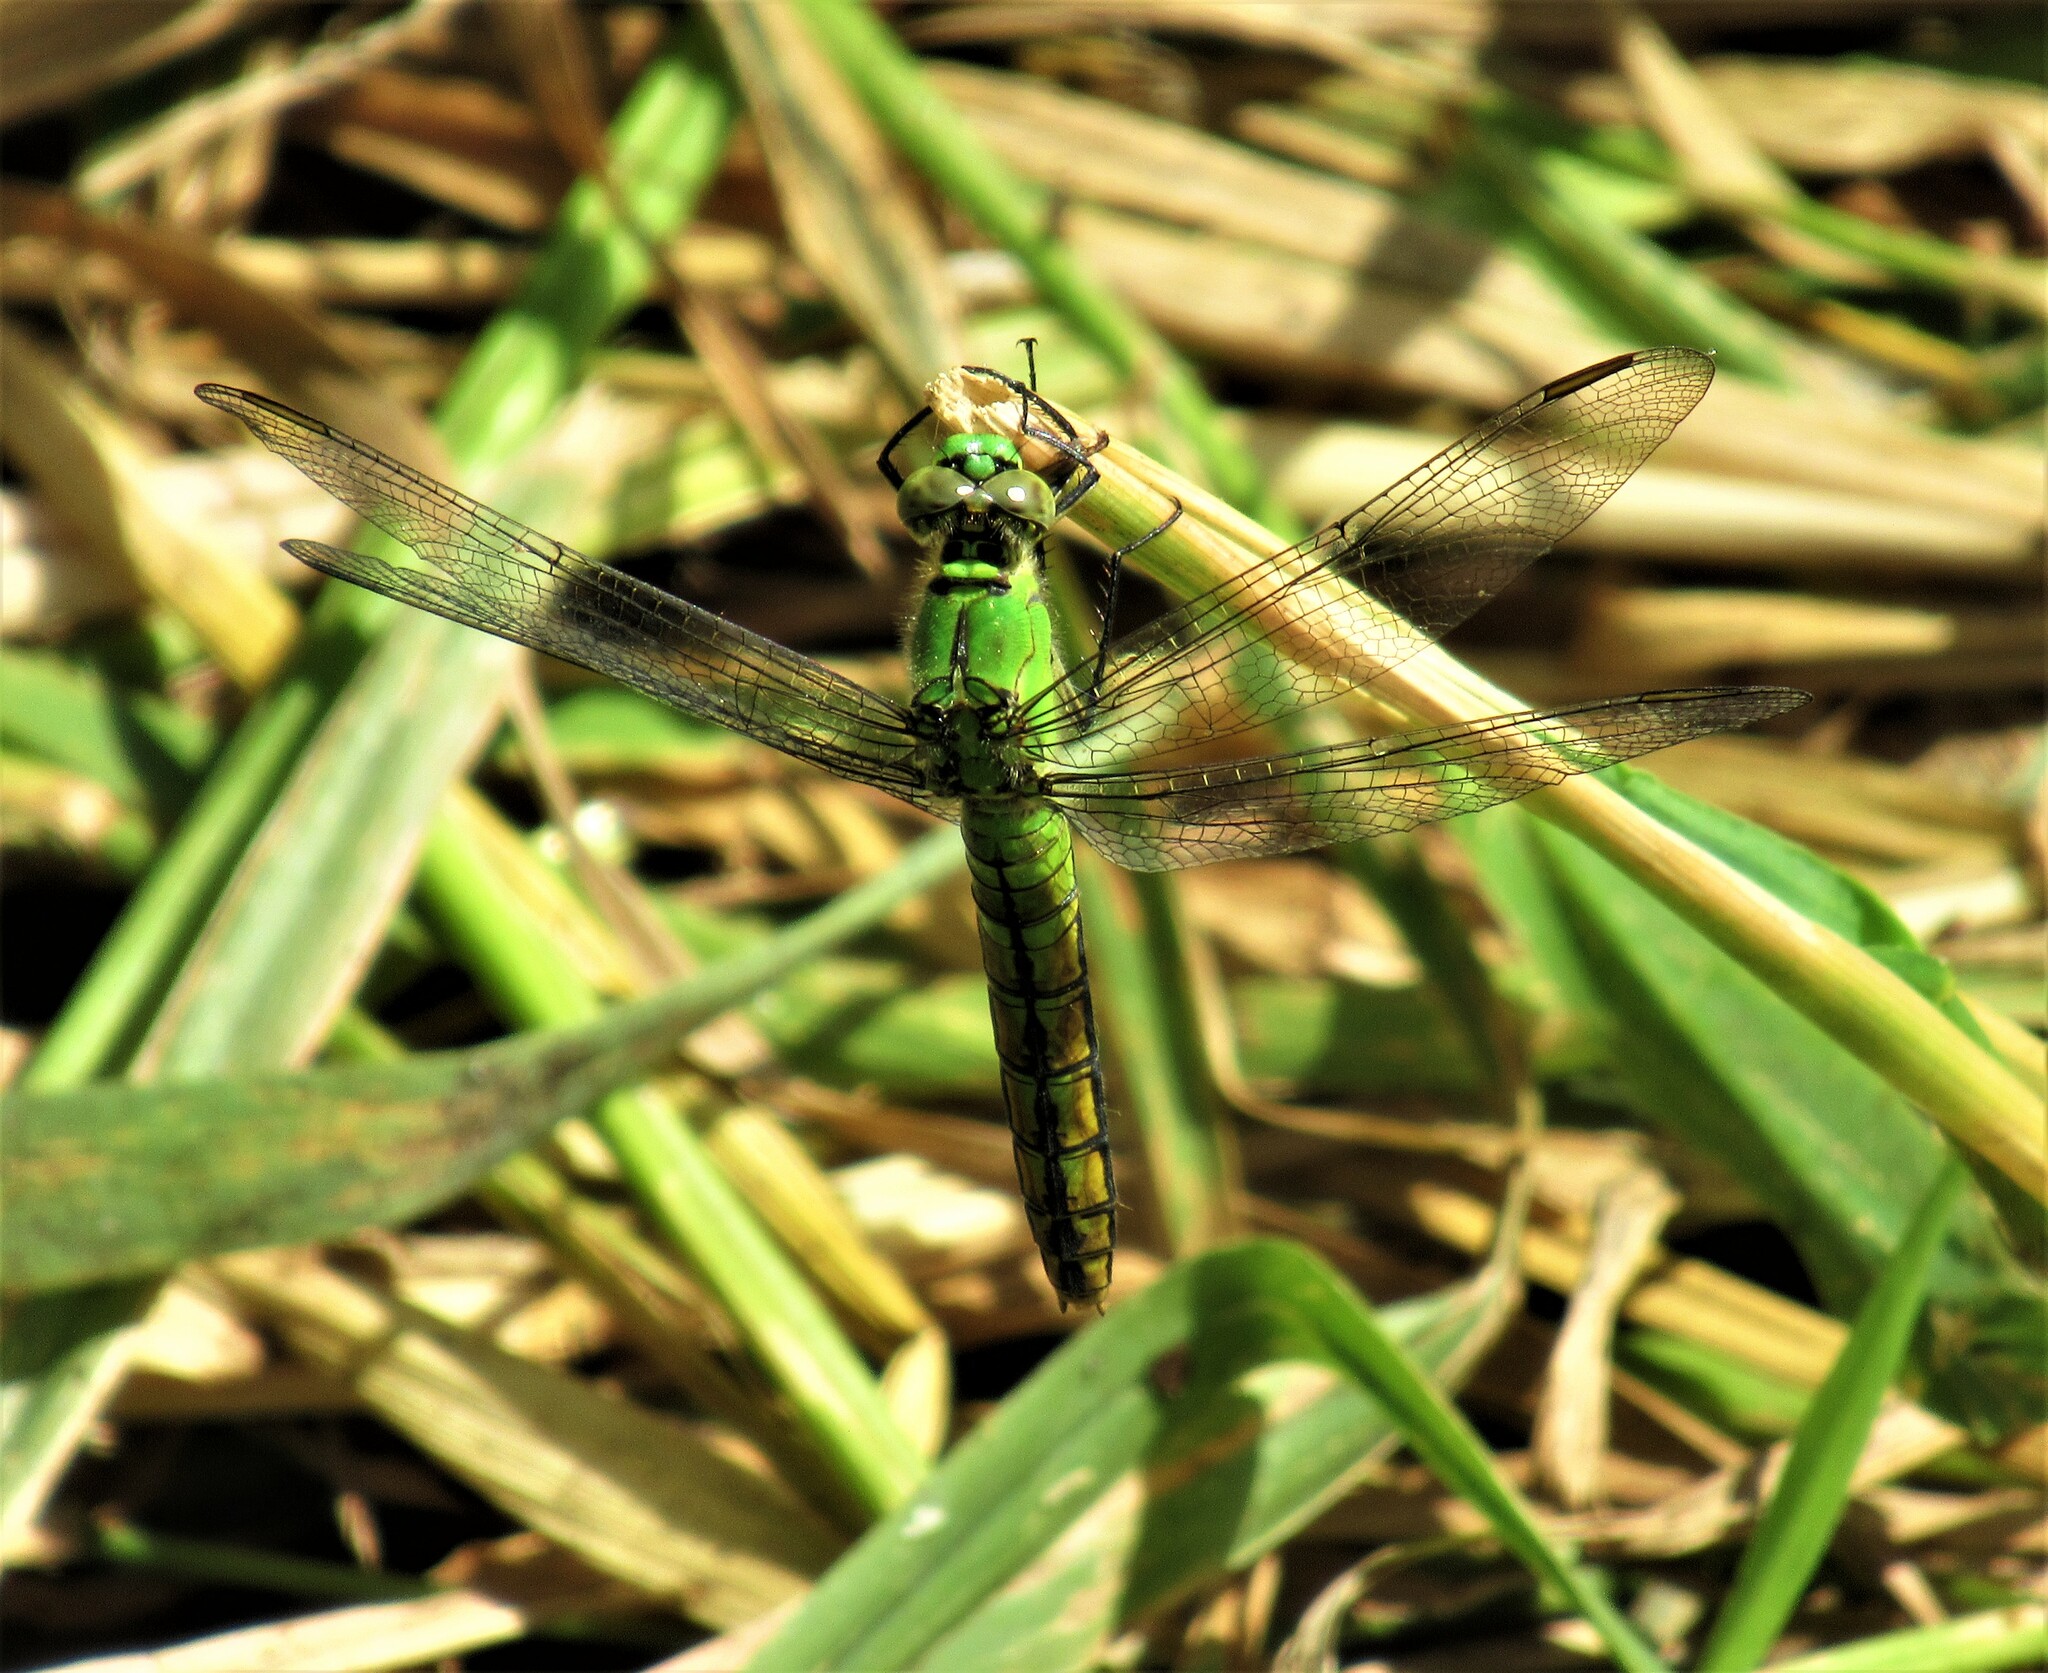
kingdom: Animalia
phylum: Arthropoda
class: Insecta
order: Odonata
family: Libellulidae
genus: Erythemis
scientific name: Erythemis collocata
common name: Western pondhawk
